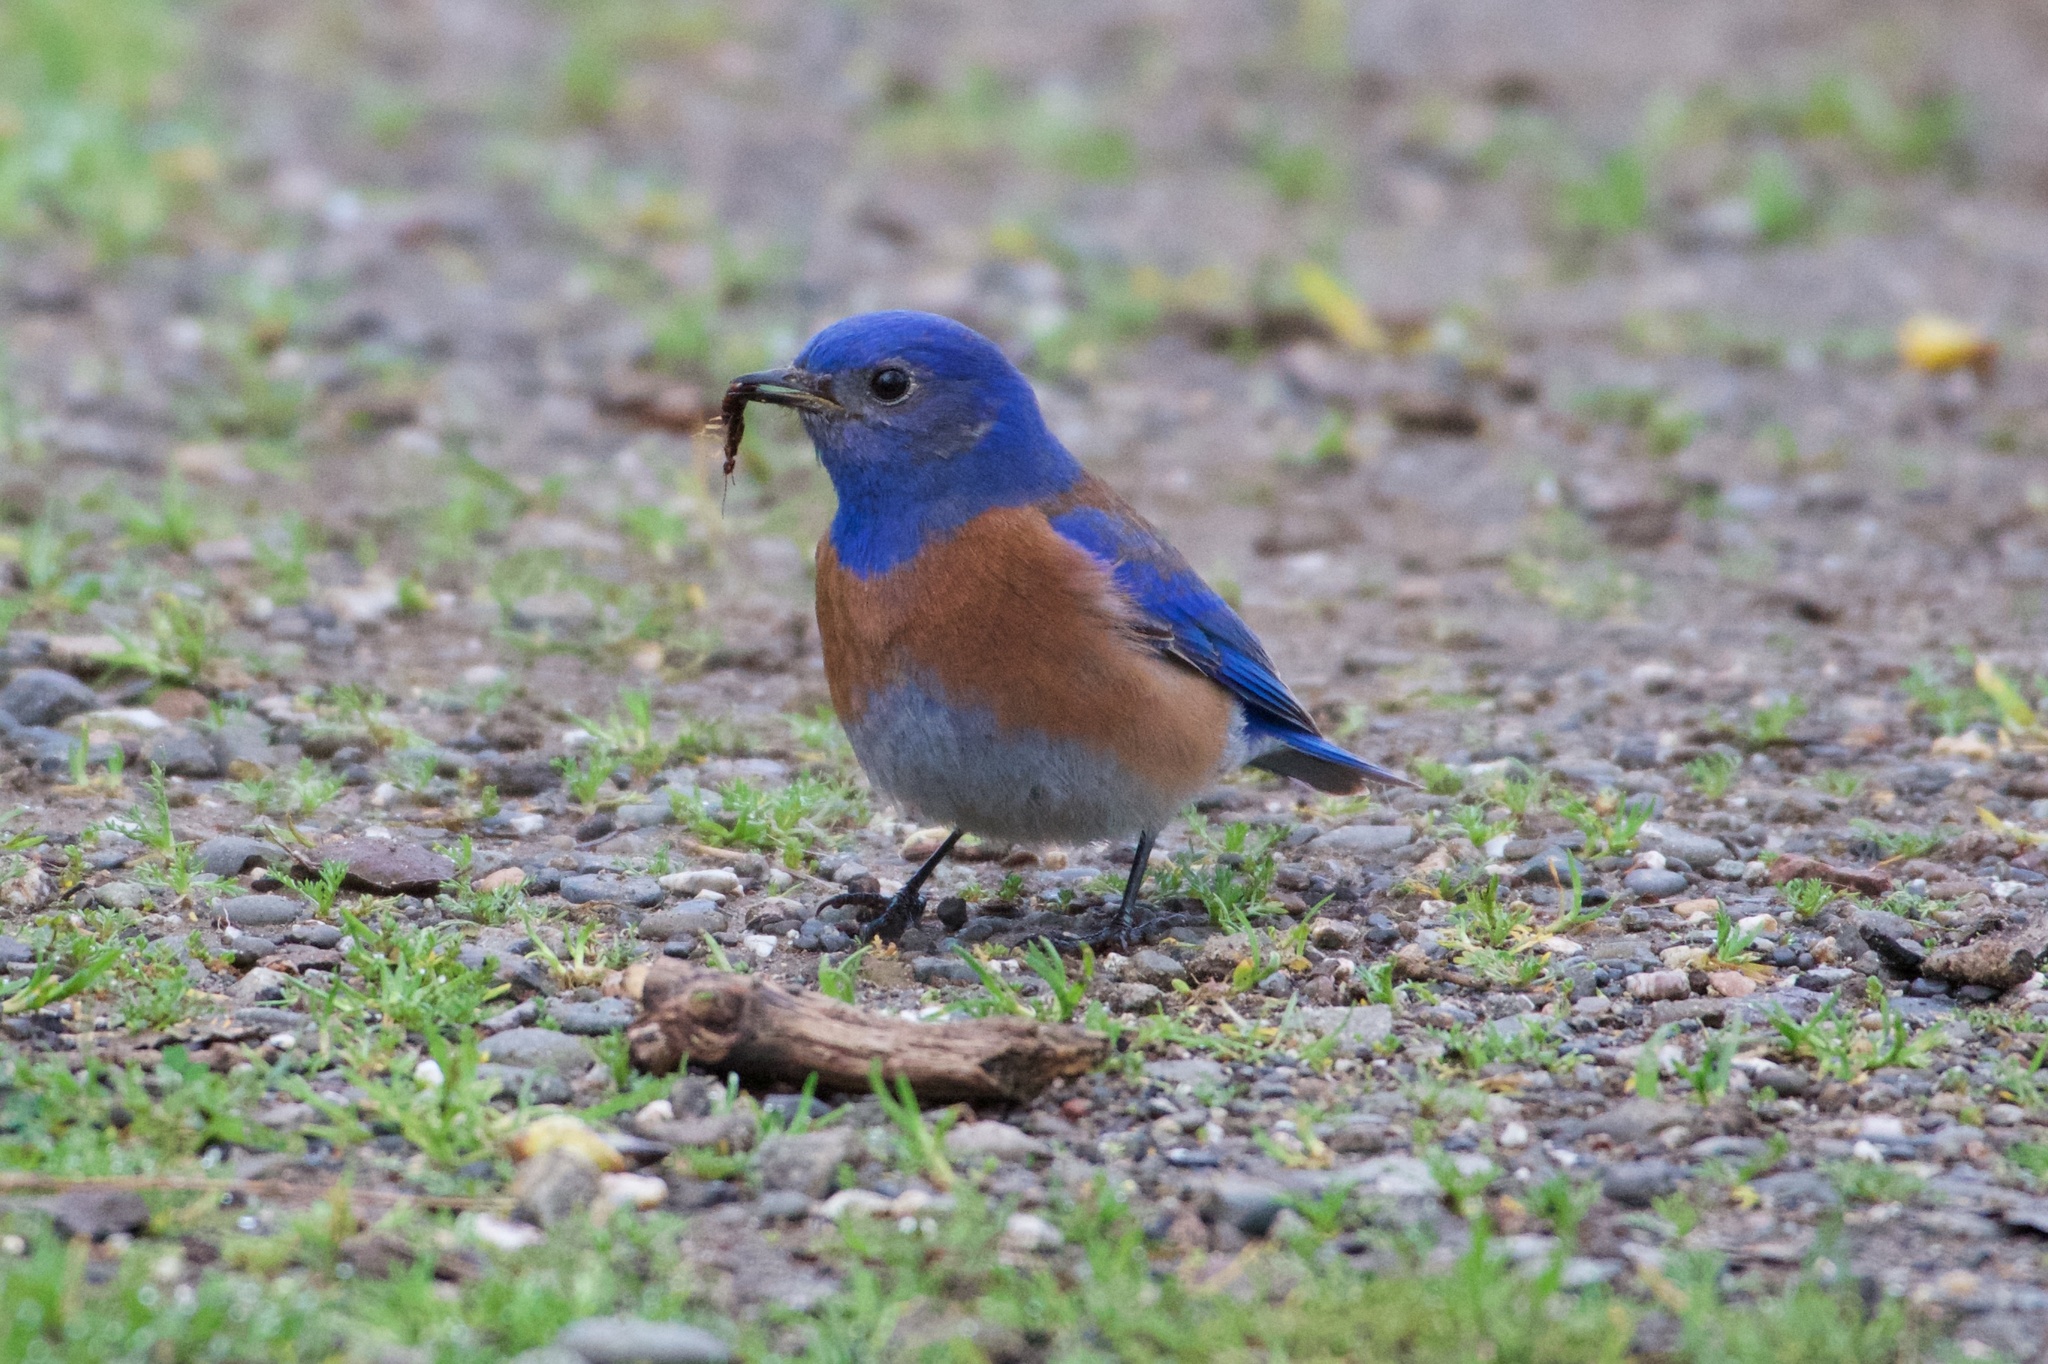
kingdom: Animalia
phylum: Chordata
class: Aves
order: Passeriformes
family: Turdidae
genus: Sialia
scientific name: Sialia mexicana
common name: Western bluebird
